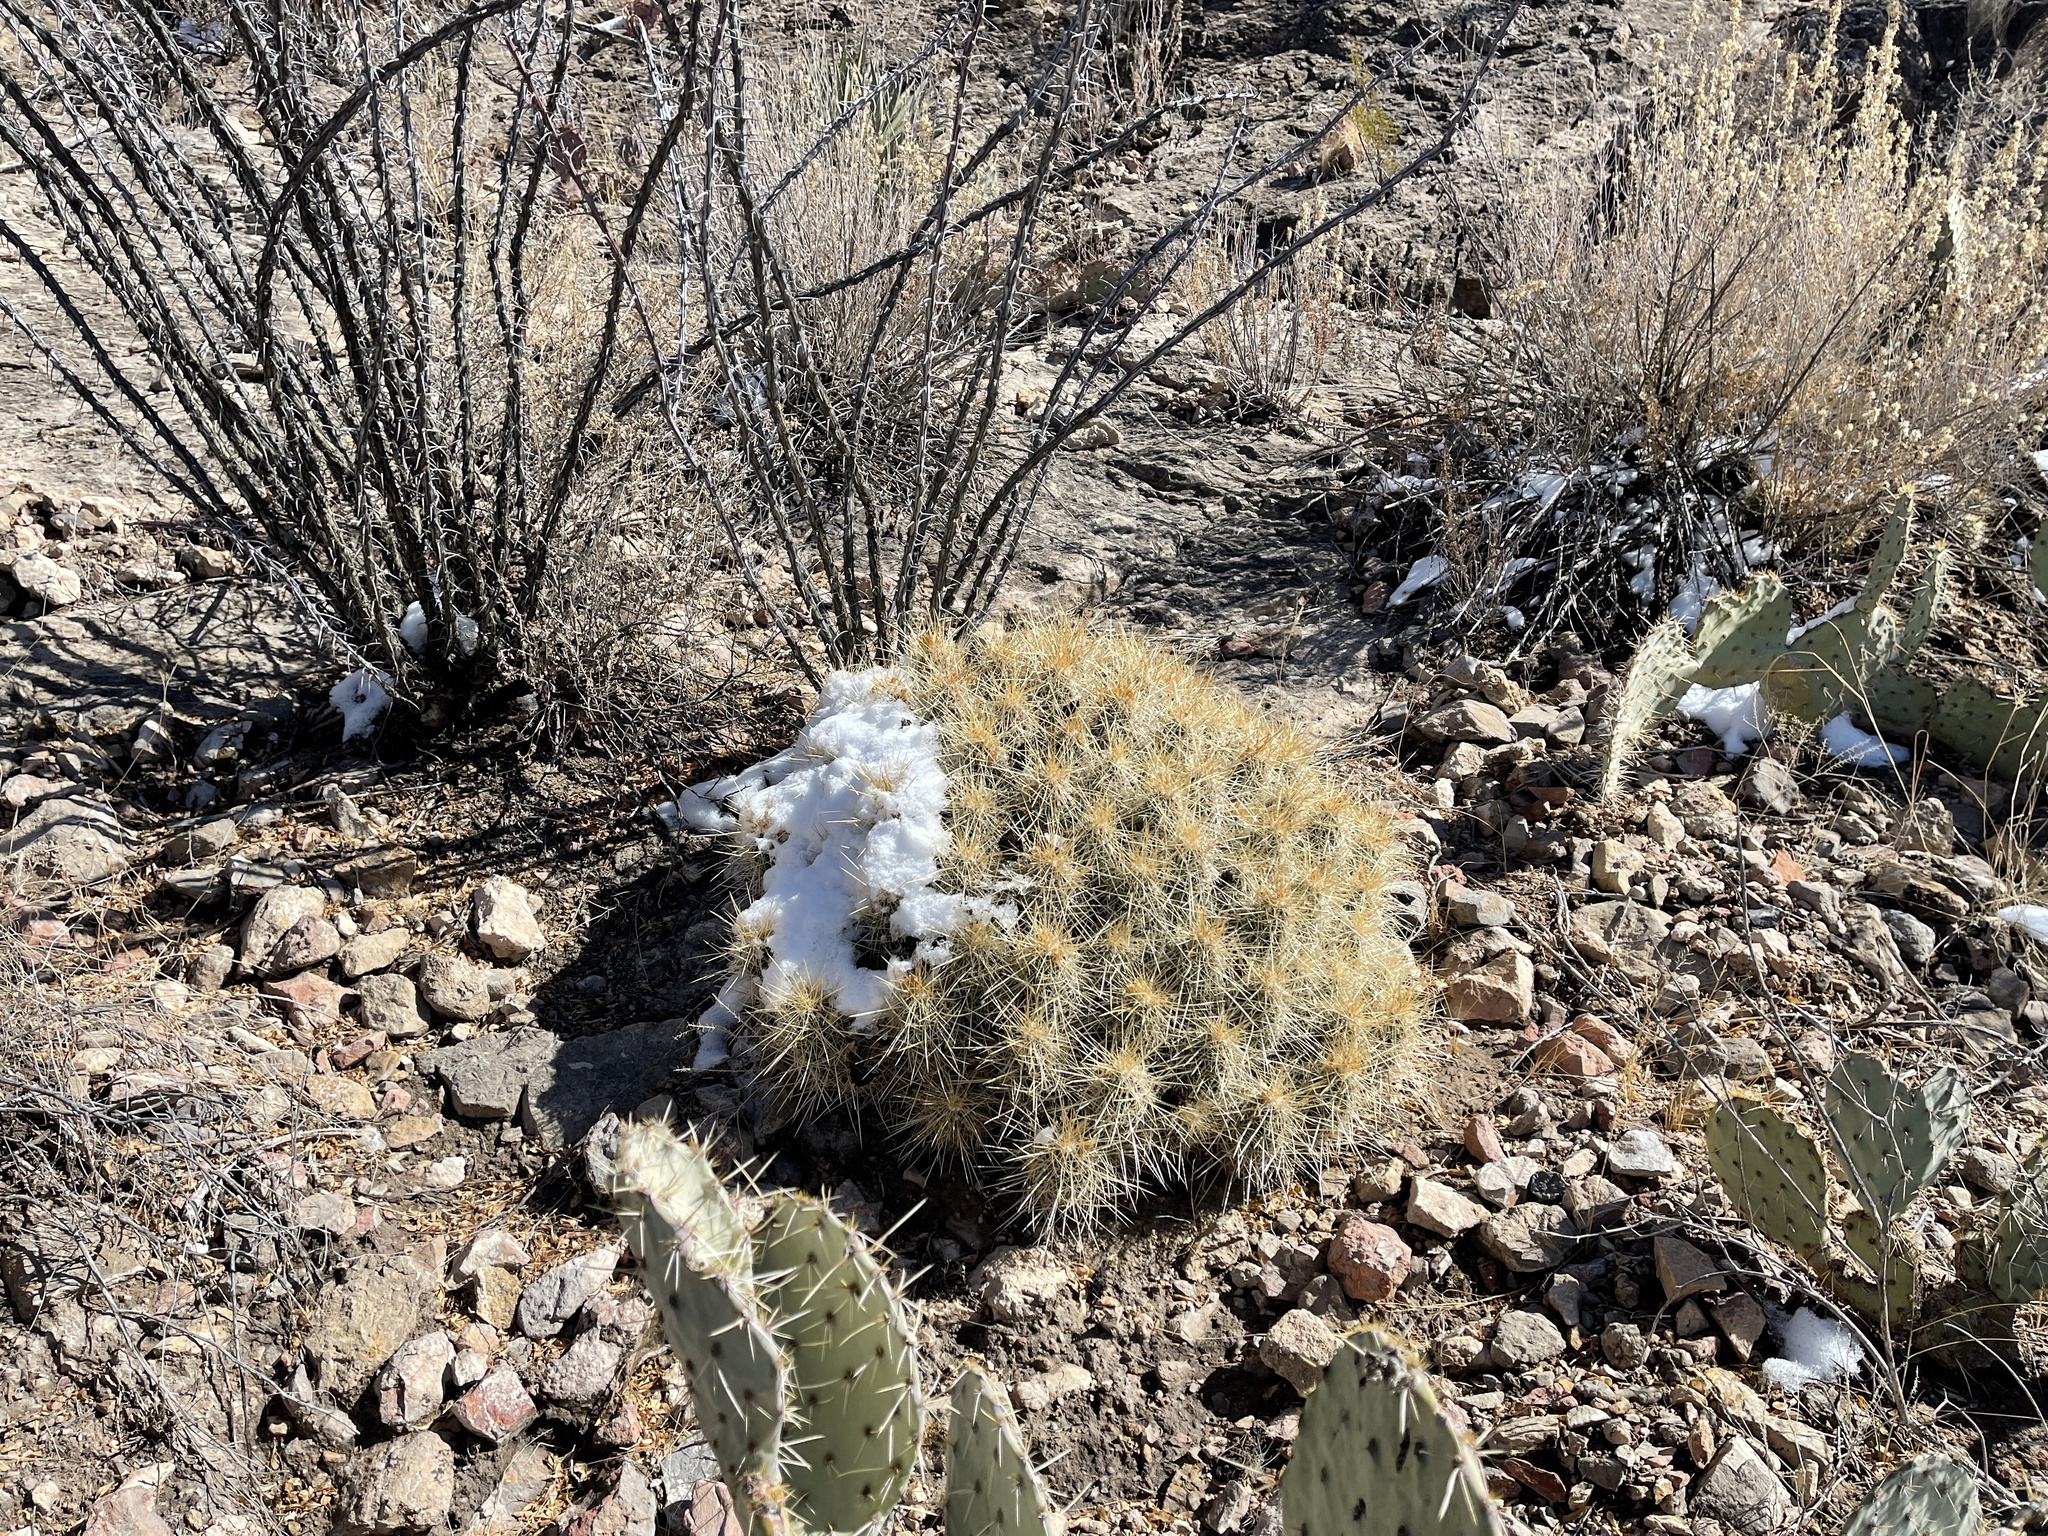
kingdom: Plantae
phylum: Tracheophyta
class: Magnoliopsida
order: Caryophyllales
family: Cactaceae
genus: Echinocereus
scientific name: Echinocereus stramineus
